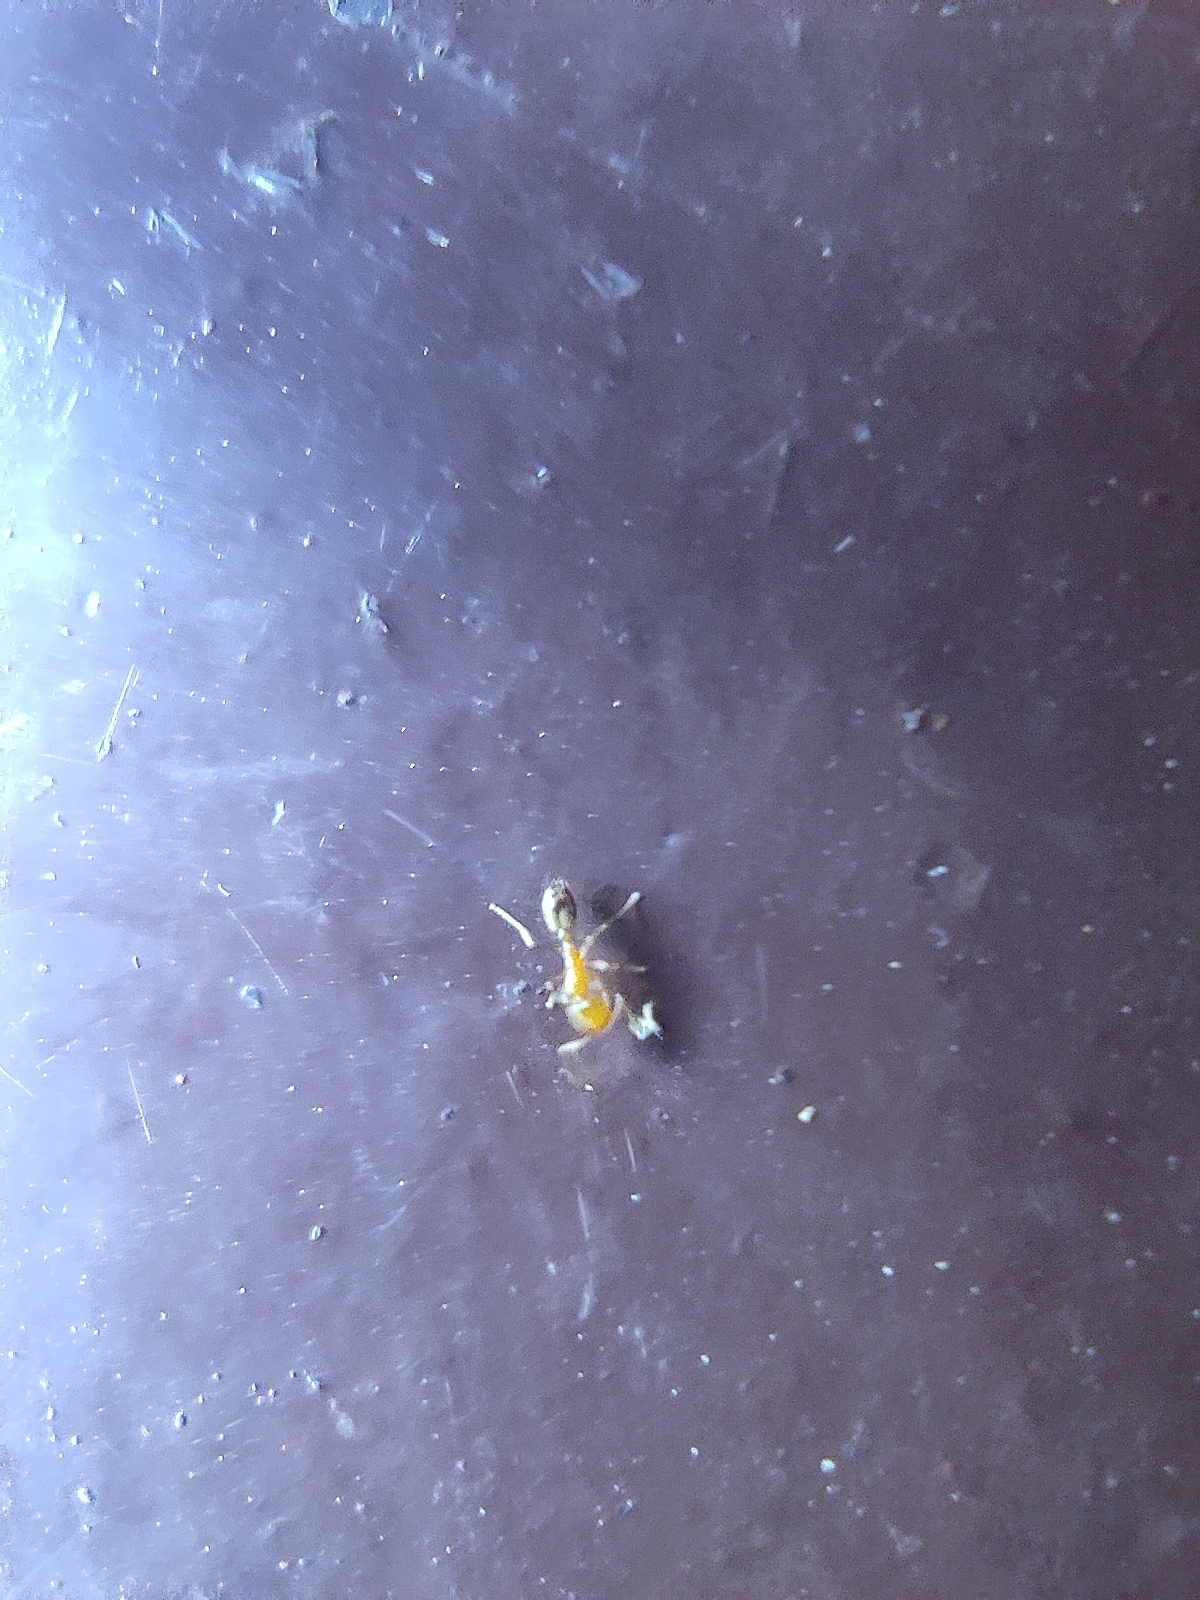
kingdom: Animalia
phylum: Arthropoda
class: Insecta
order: Hymenoptera
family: Formicidae
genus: Monomorium
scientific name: Monomorium destructor
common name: Destructive trailing ant
